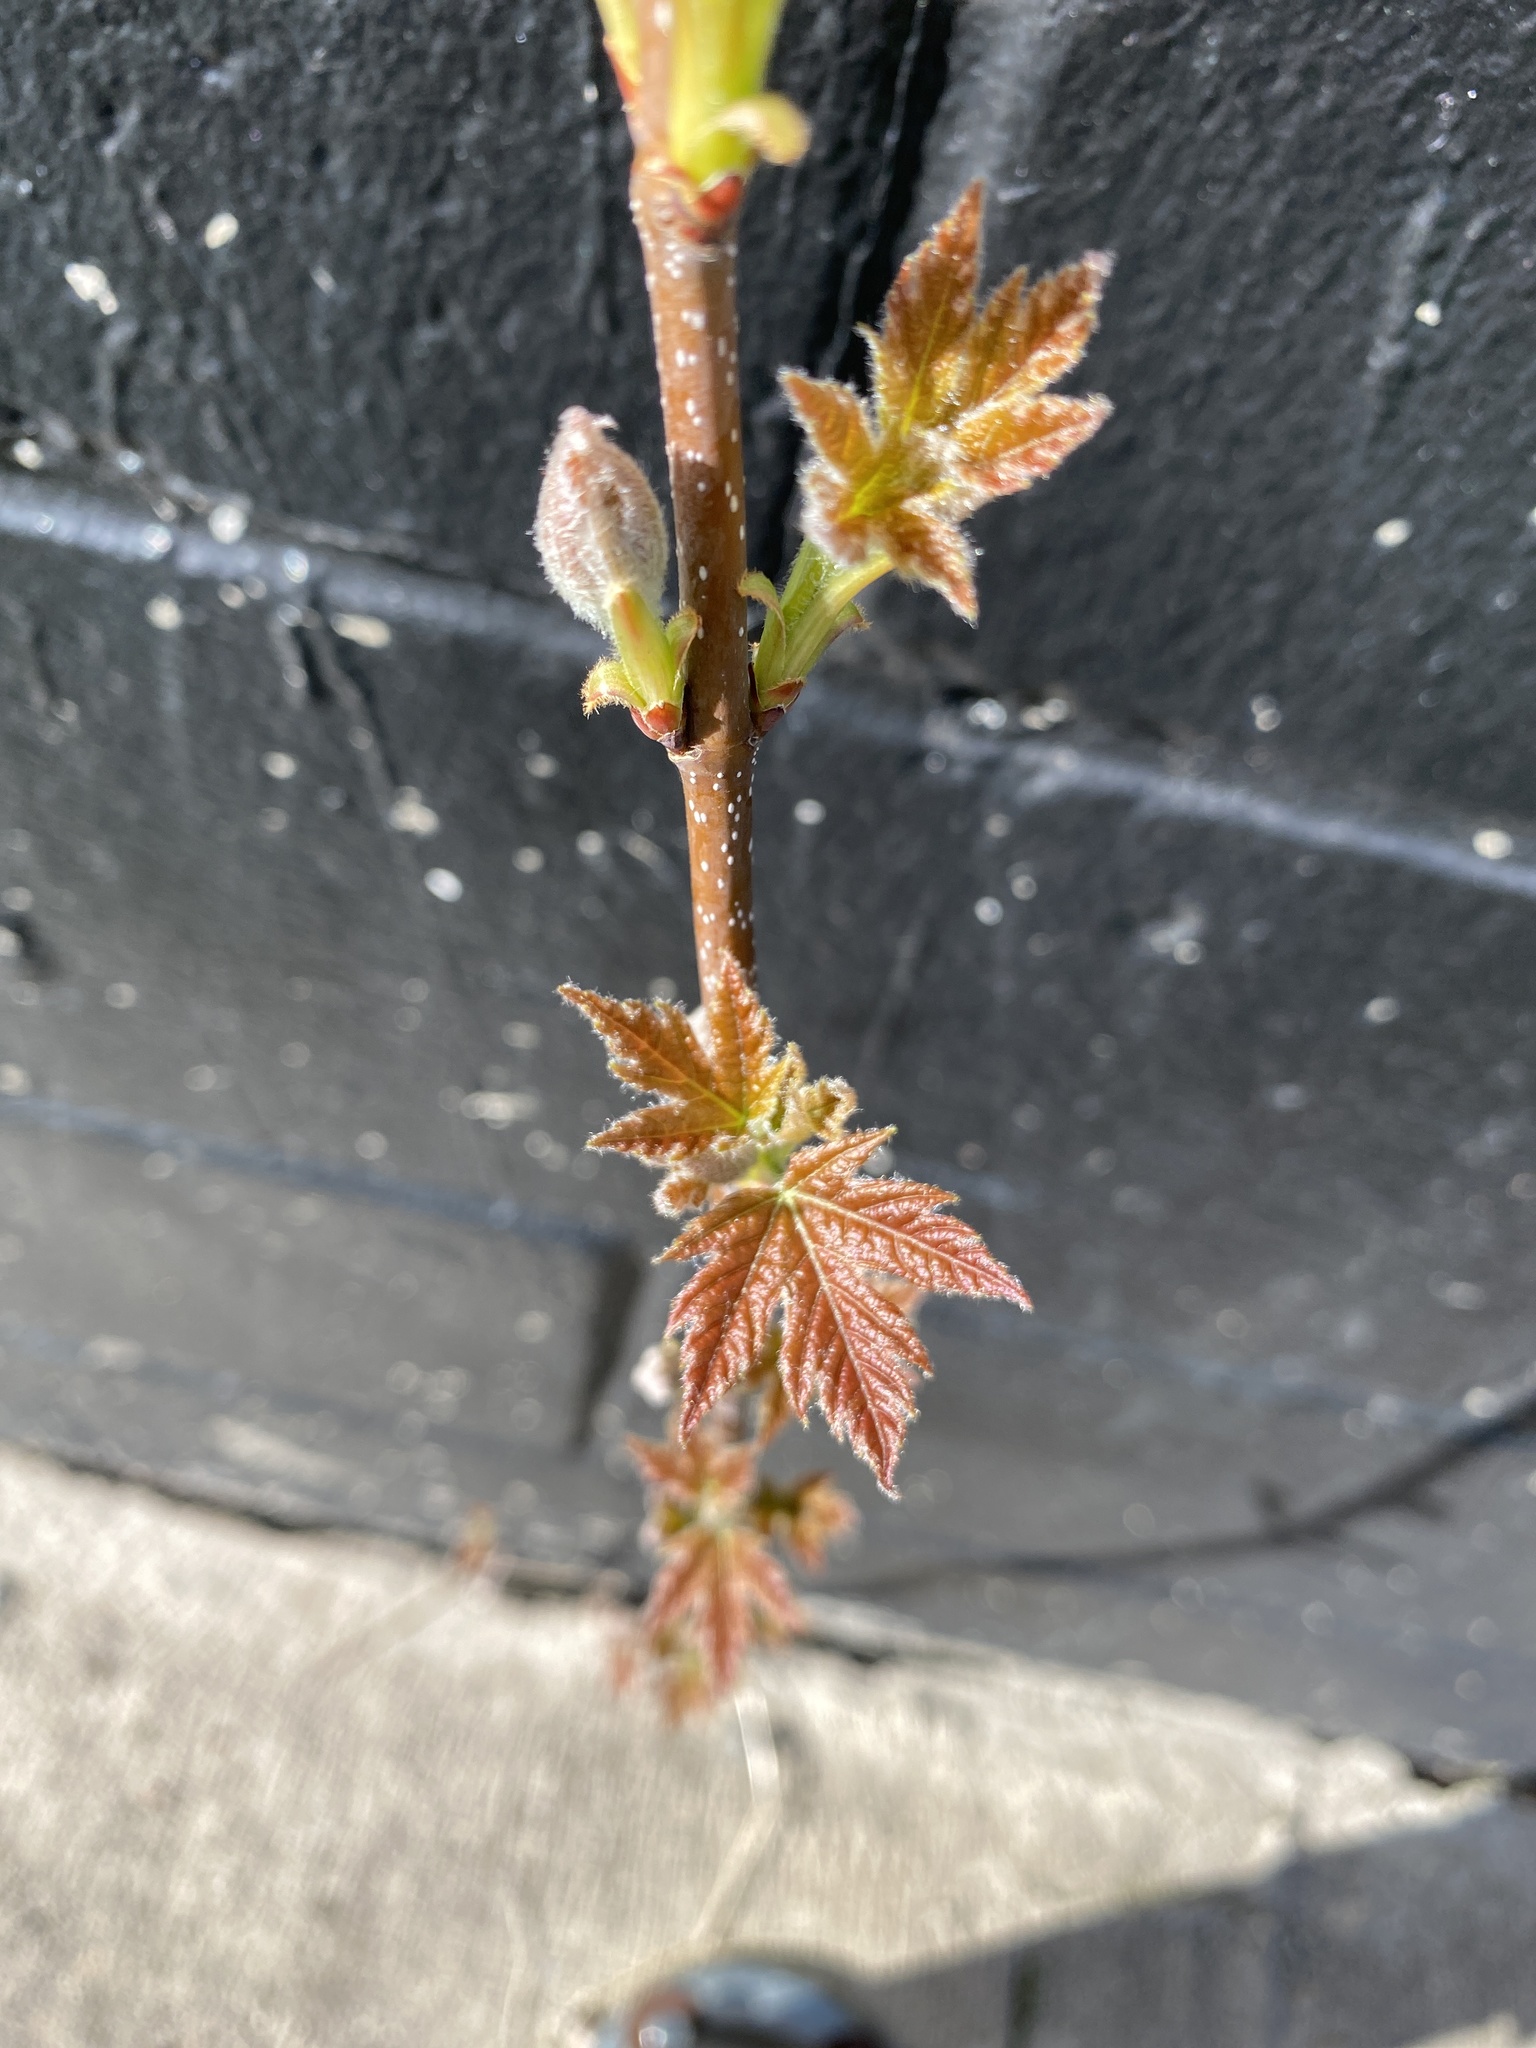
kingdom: Plantae
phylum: Tracheophyta
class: Magnoliopsida
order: Sapindales
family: Sapindaceae
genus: Acer
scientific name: Acer saccharinum
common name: Silver maple
